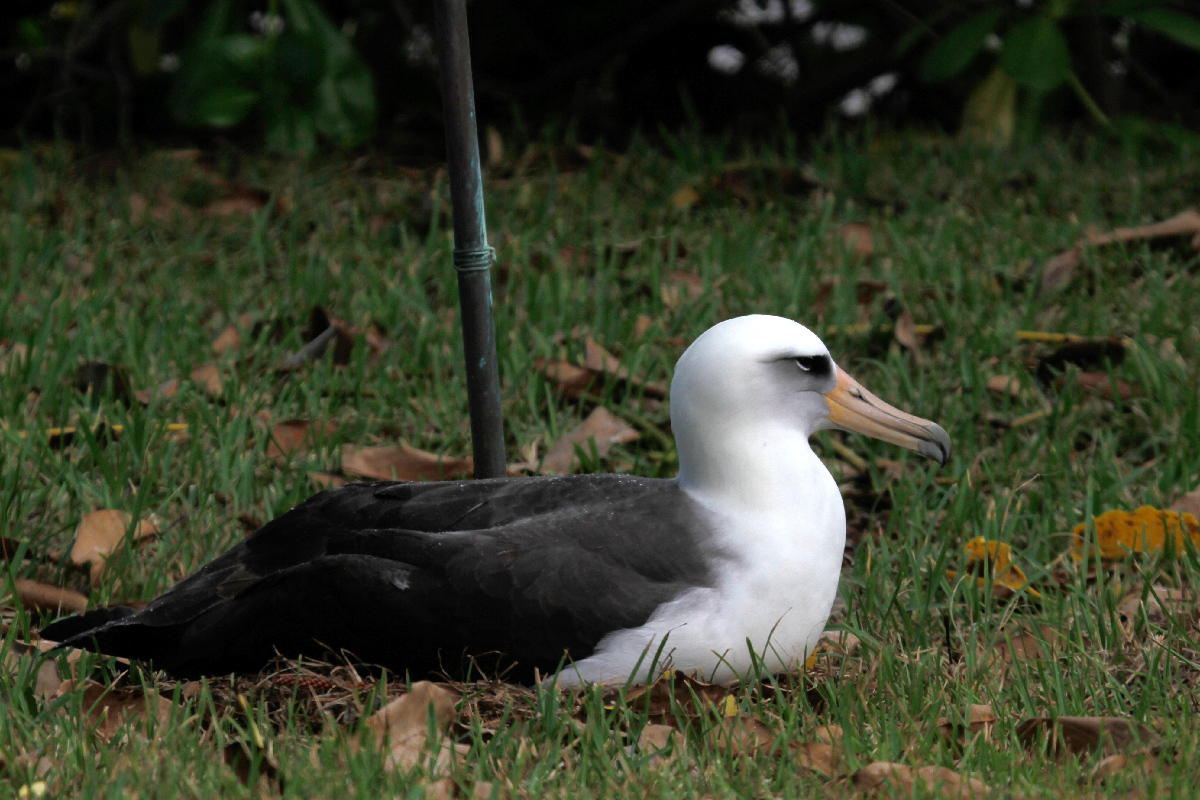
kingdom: Animalia
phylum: Chordata
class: Aves
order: Procellariiformes
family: Diomedeidae
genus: Phoebastria
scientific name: Phoebastria immutabilis
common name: Laysan albatross
